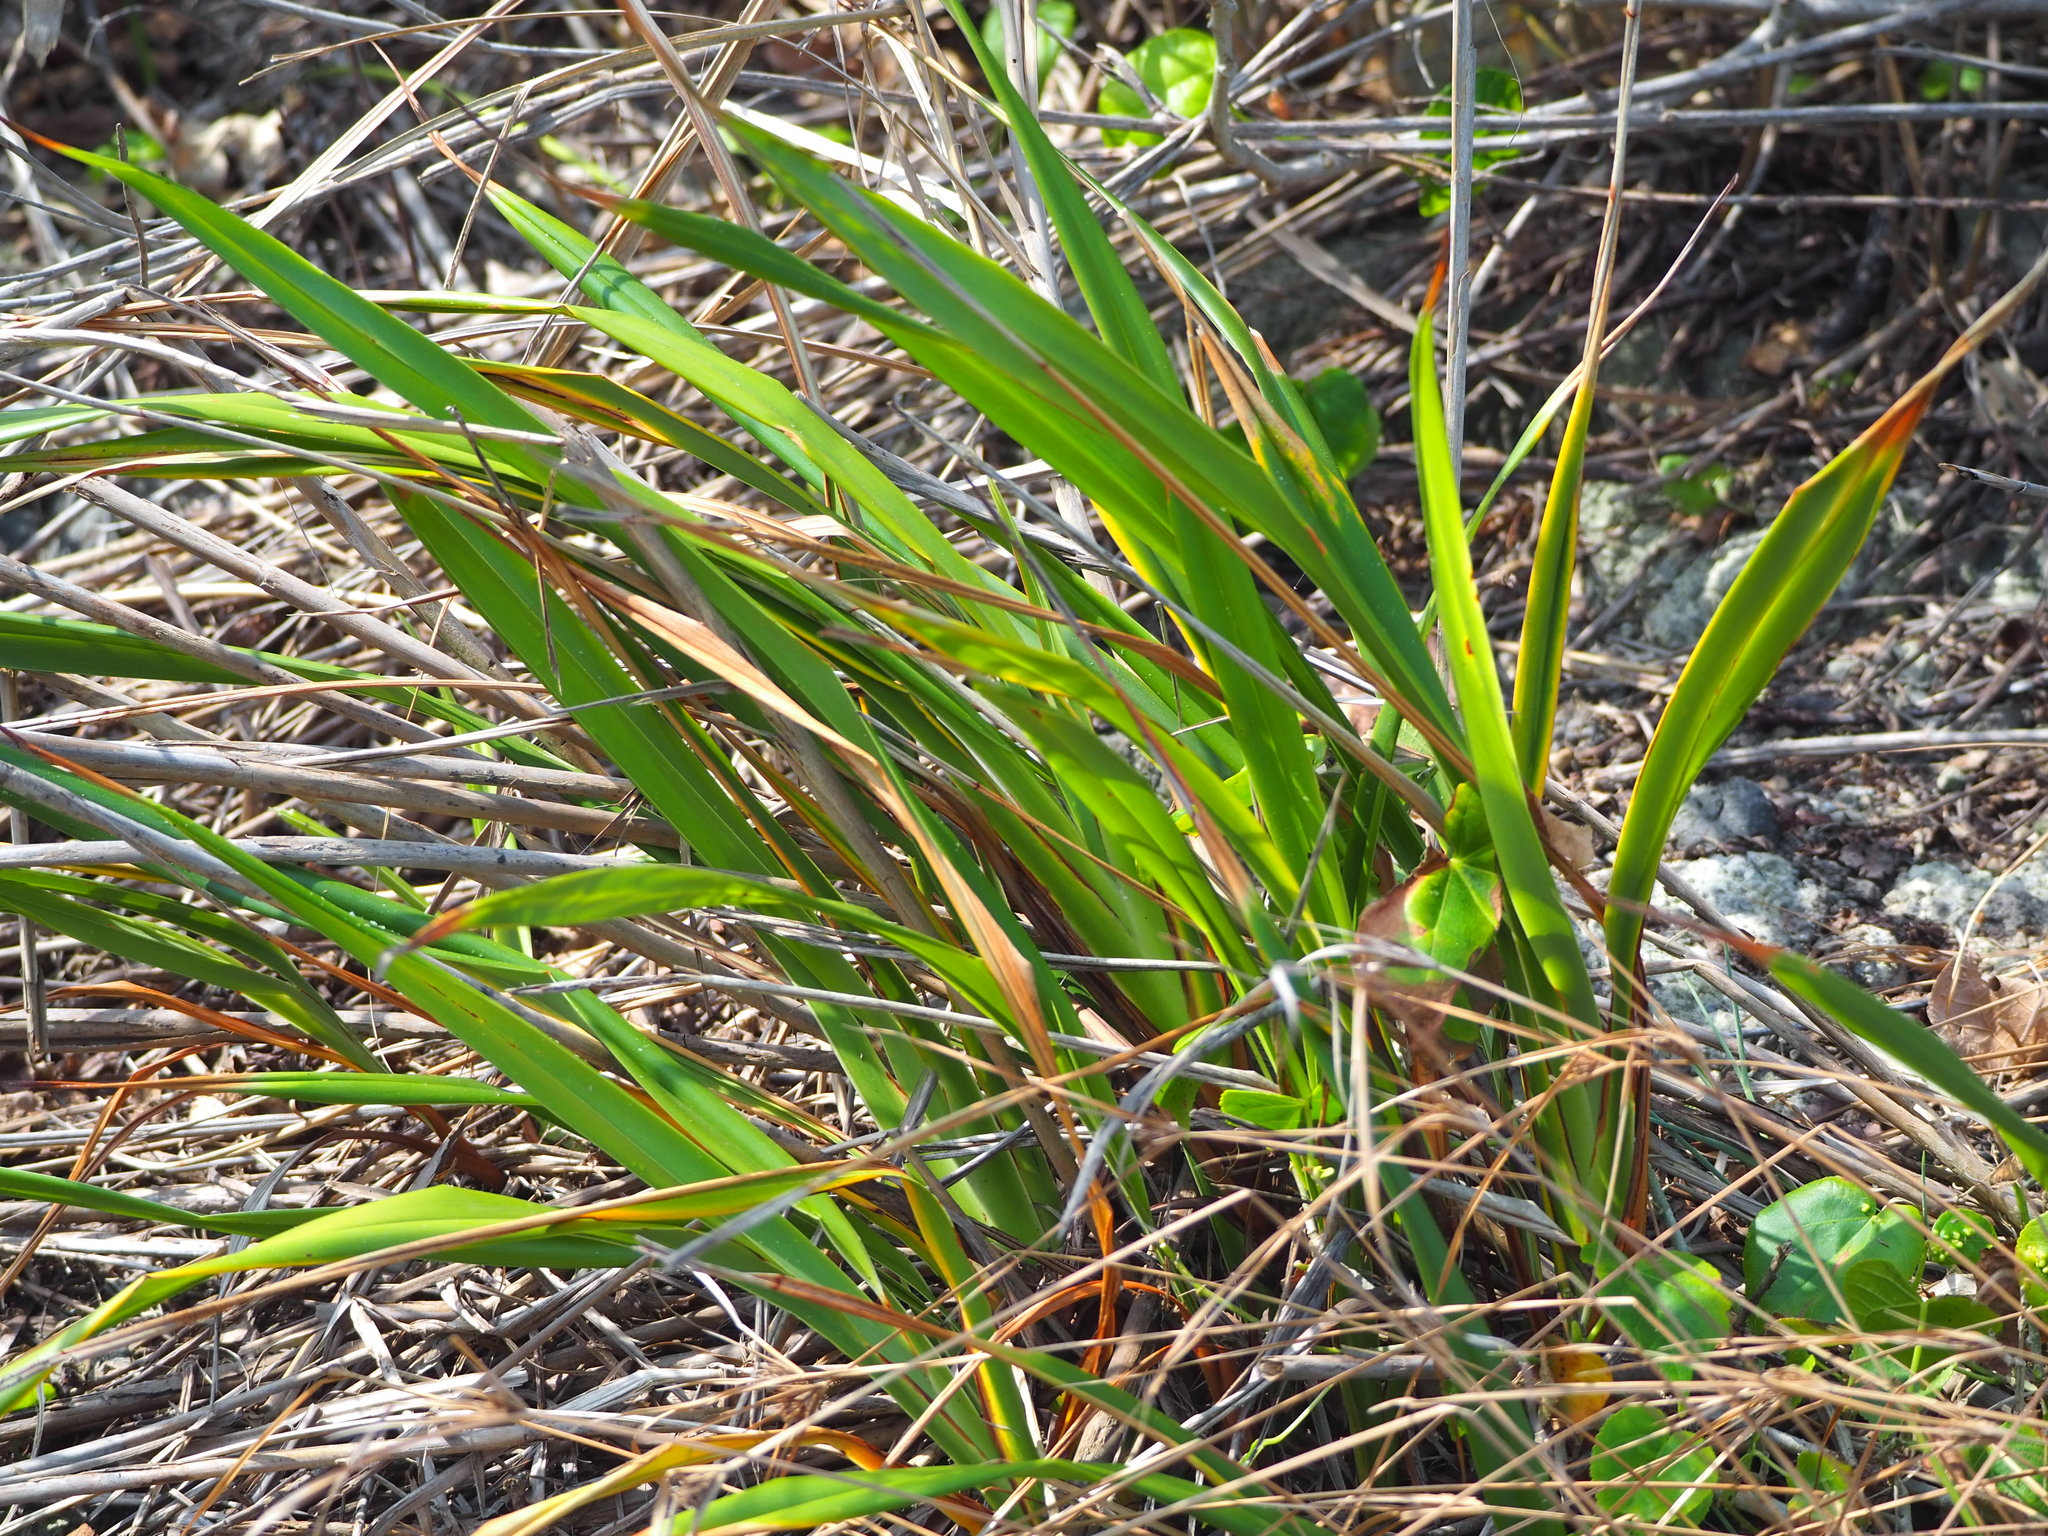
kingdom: Plantae
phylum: Tracheophyta
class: Liliopsida
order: Asparagales
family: Asphodelaceae
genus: Dianella
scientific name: Dianella ensifolia
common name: New zealand lilyplant
